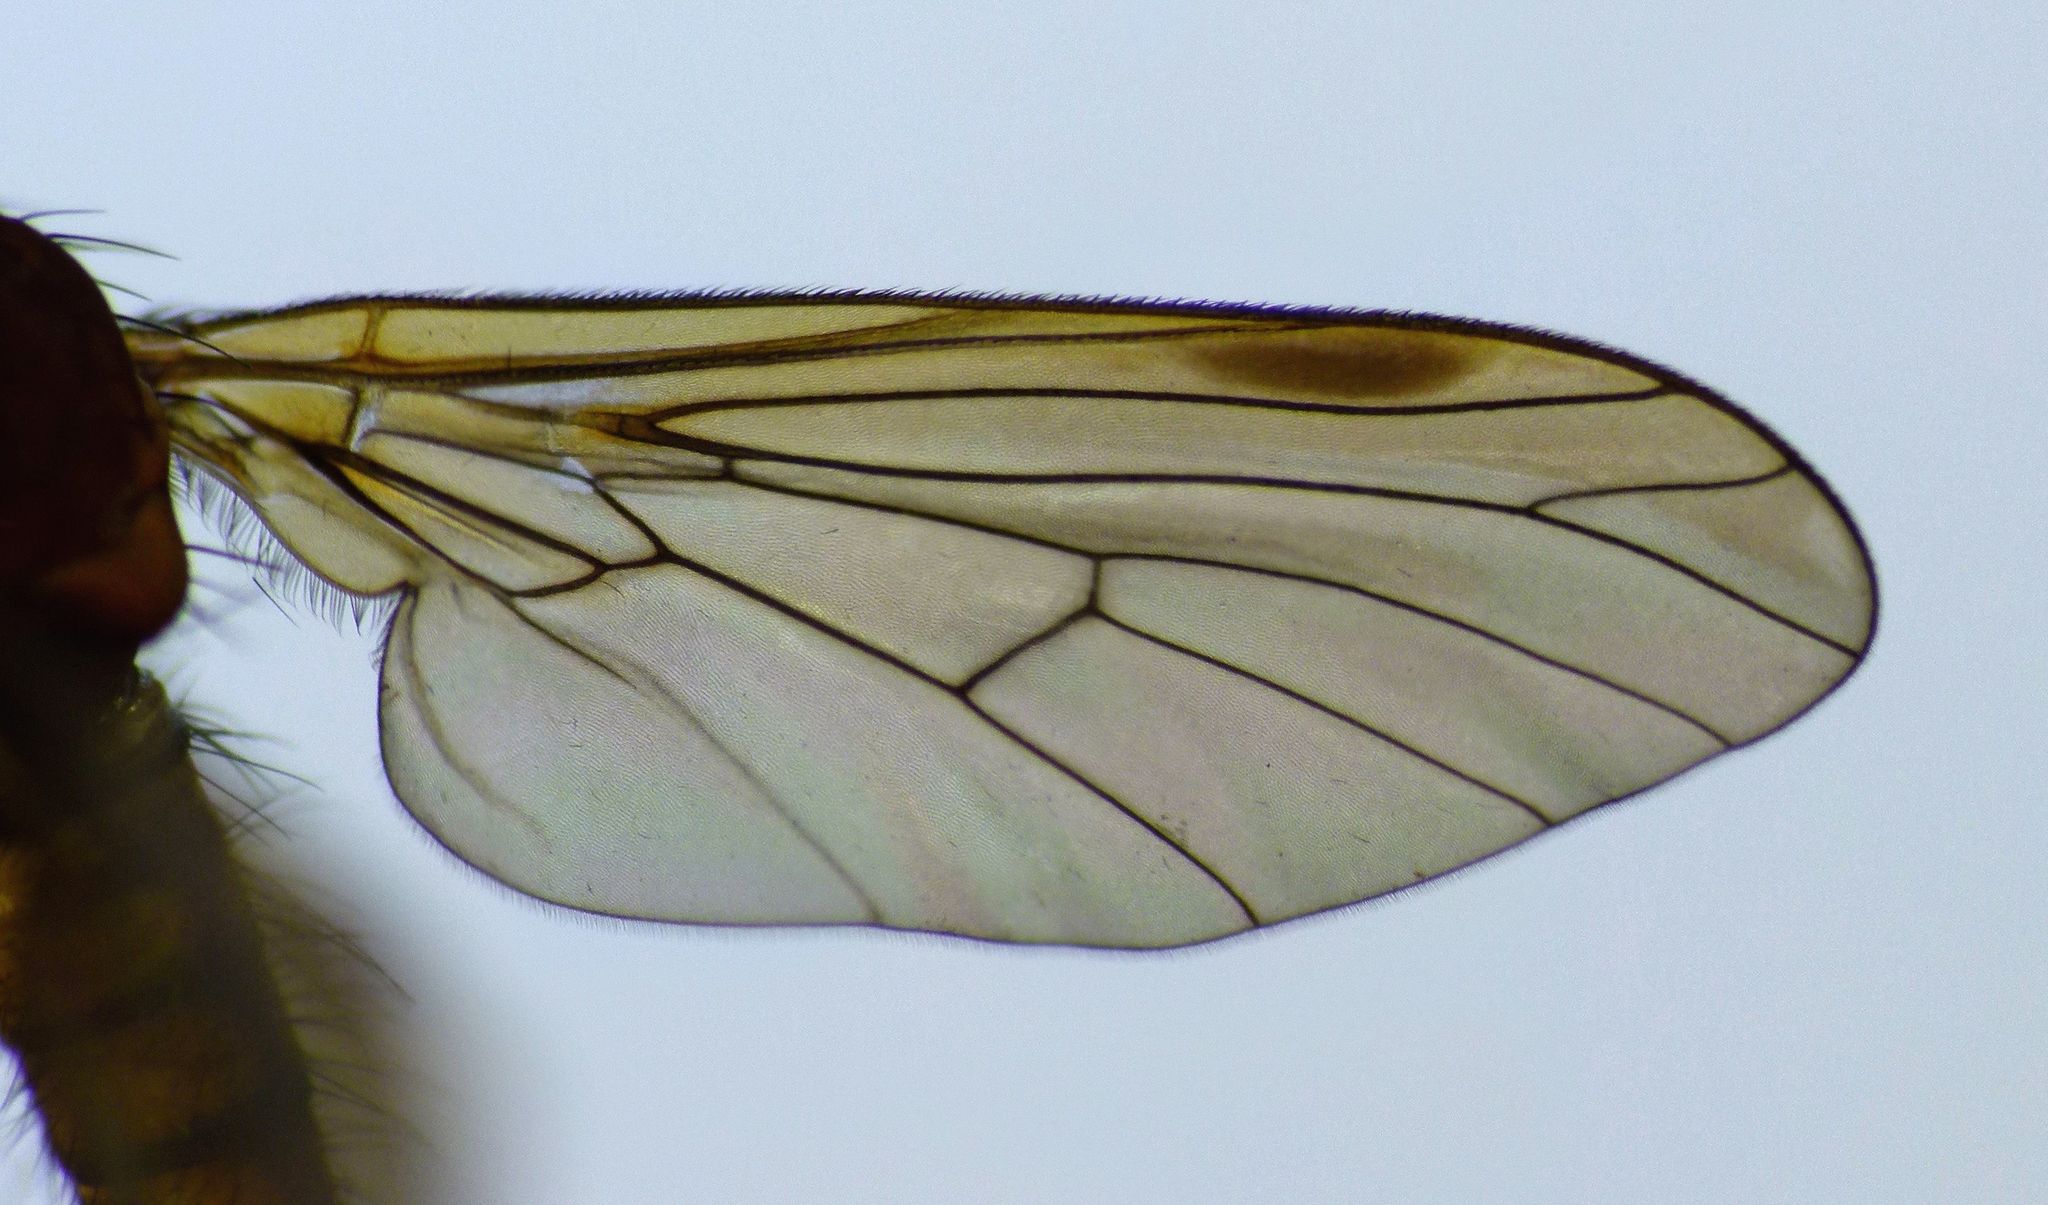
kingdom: Animalia
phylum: Arthropoda
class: Insecta
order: Diptera
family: Brachystomatidae
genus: Heterophlebus
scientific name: Heterophlebus
